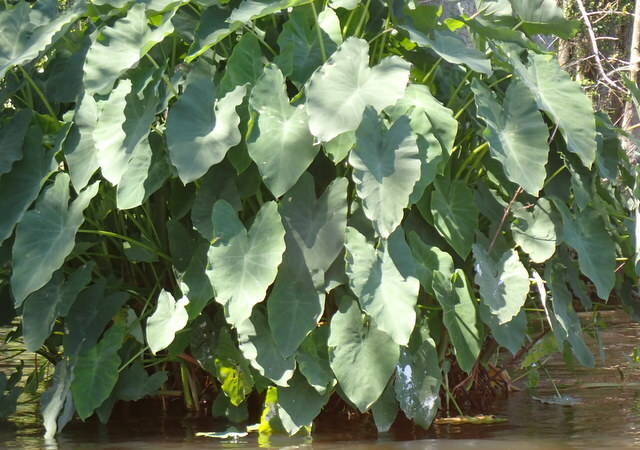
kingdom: Plantae
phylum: Tracheophyta
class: Liliopsida
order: Alismatales
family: Araceae
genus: Colocasia
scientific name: Colocasia esculenta
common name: Taro
